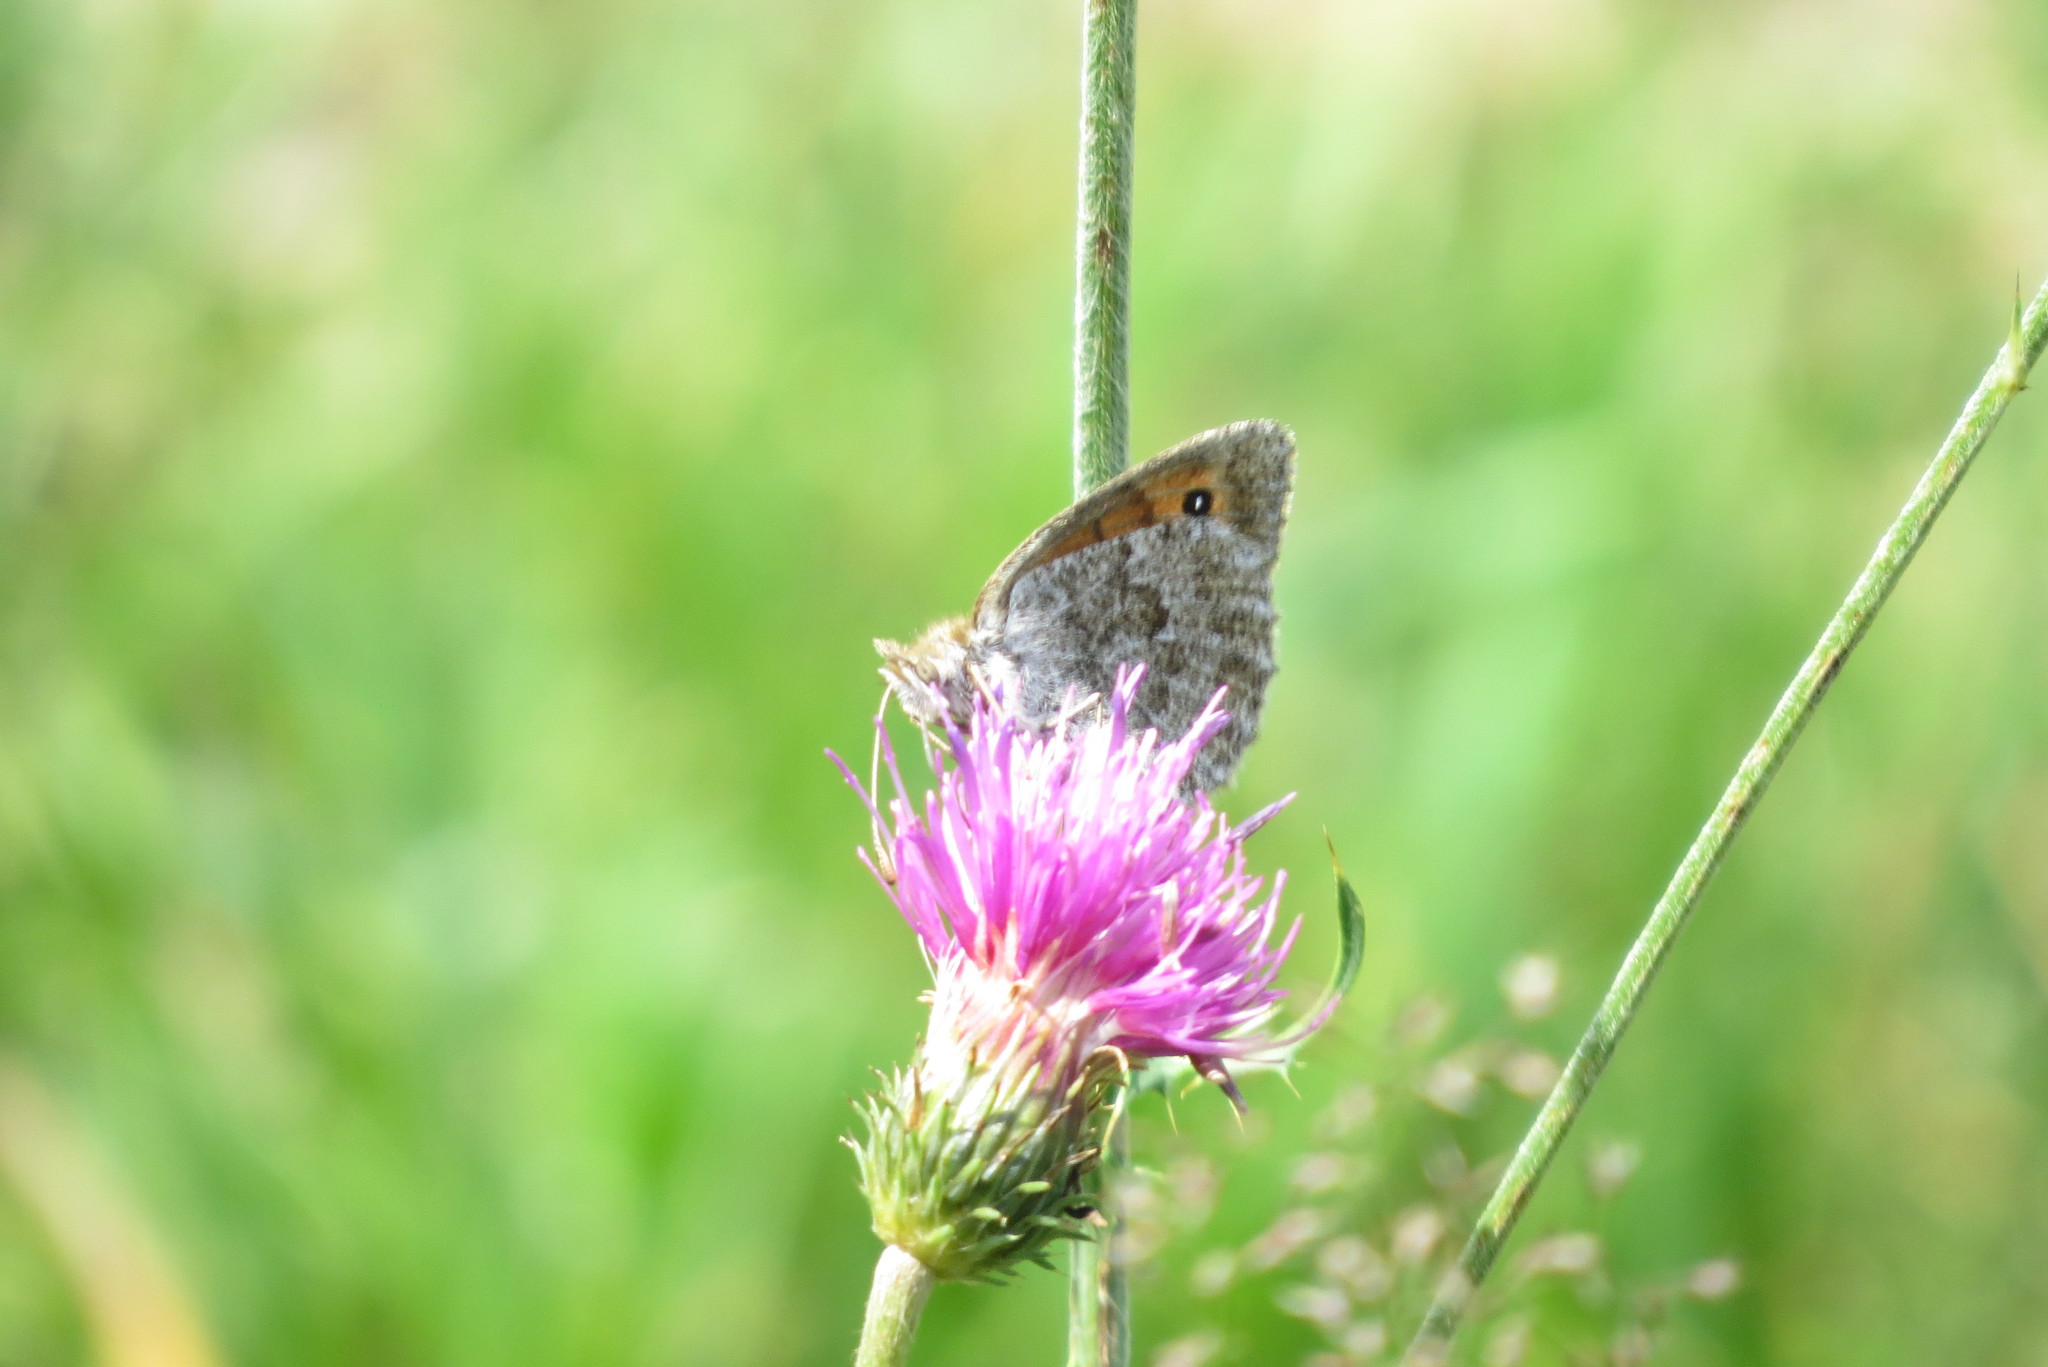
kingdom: Animalia
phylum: Arthropoda
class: Insecta
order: Lepidoptera
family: Nymphalidae
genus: Erebia
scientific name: Erebia cassioides
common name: Common brassy ringlet
